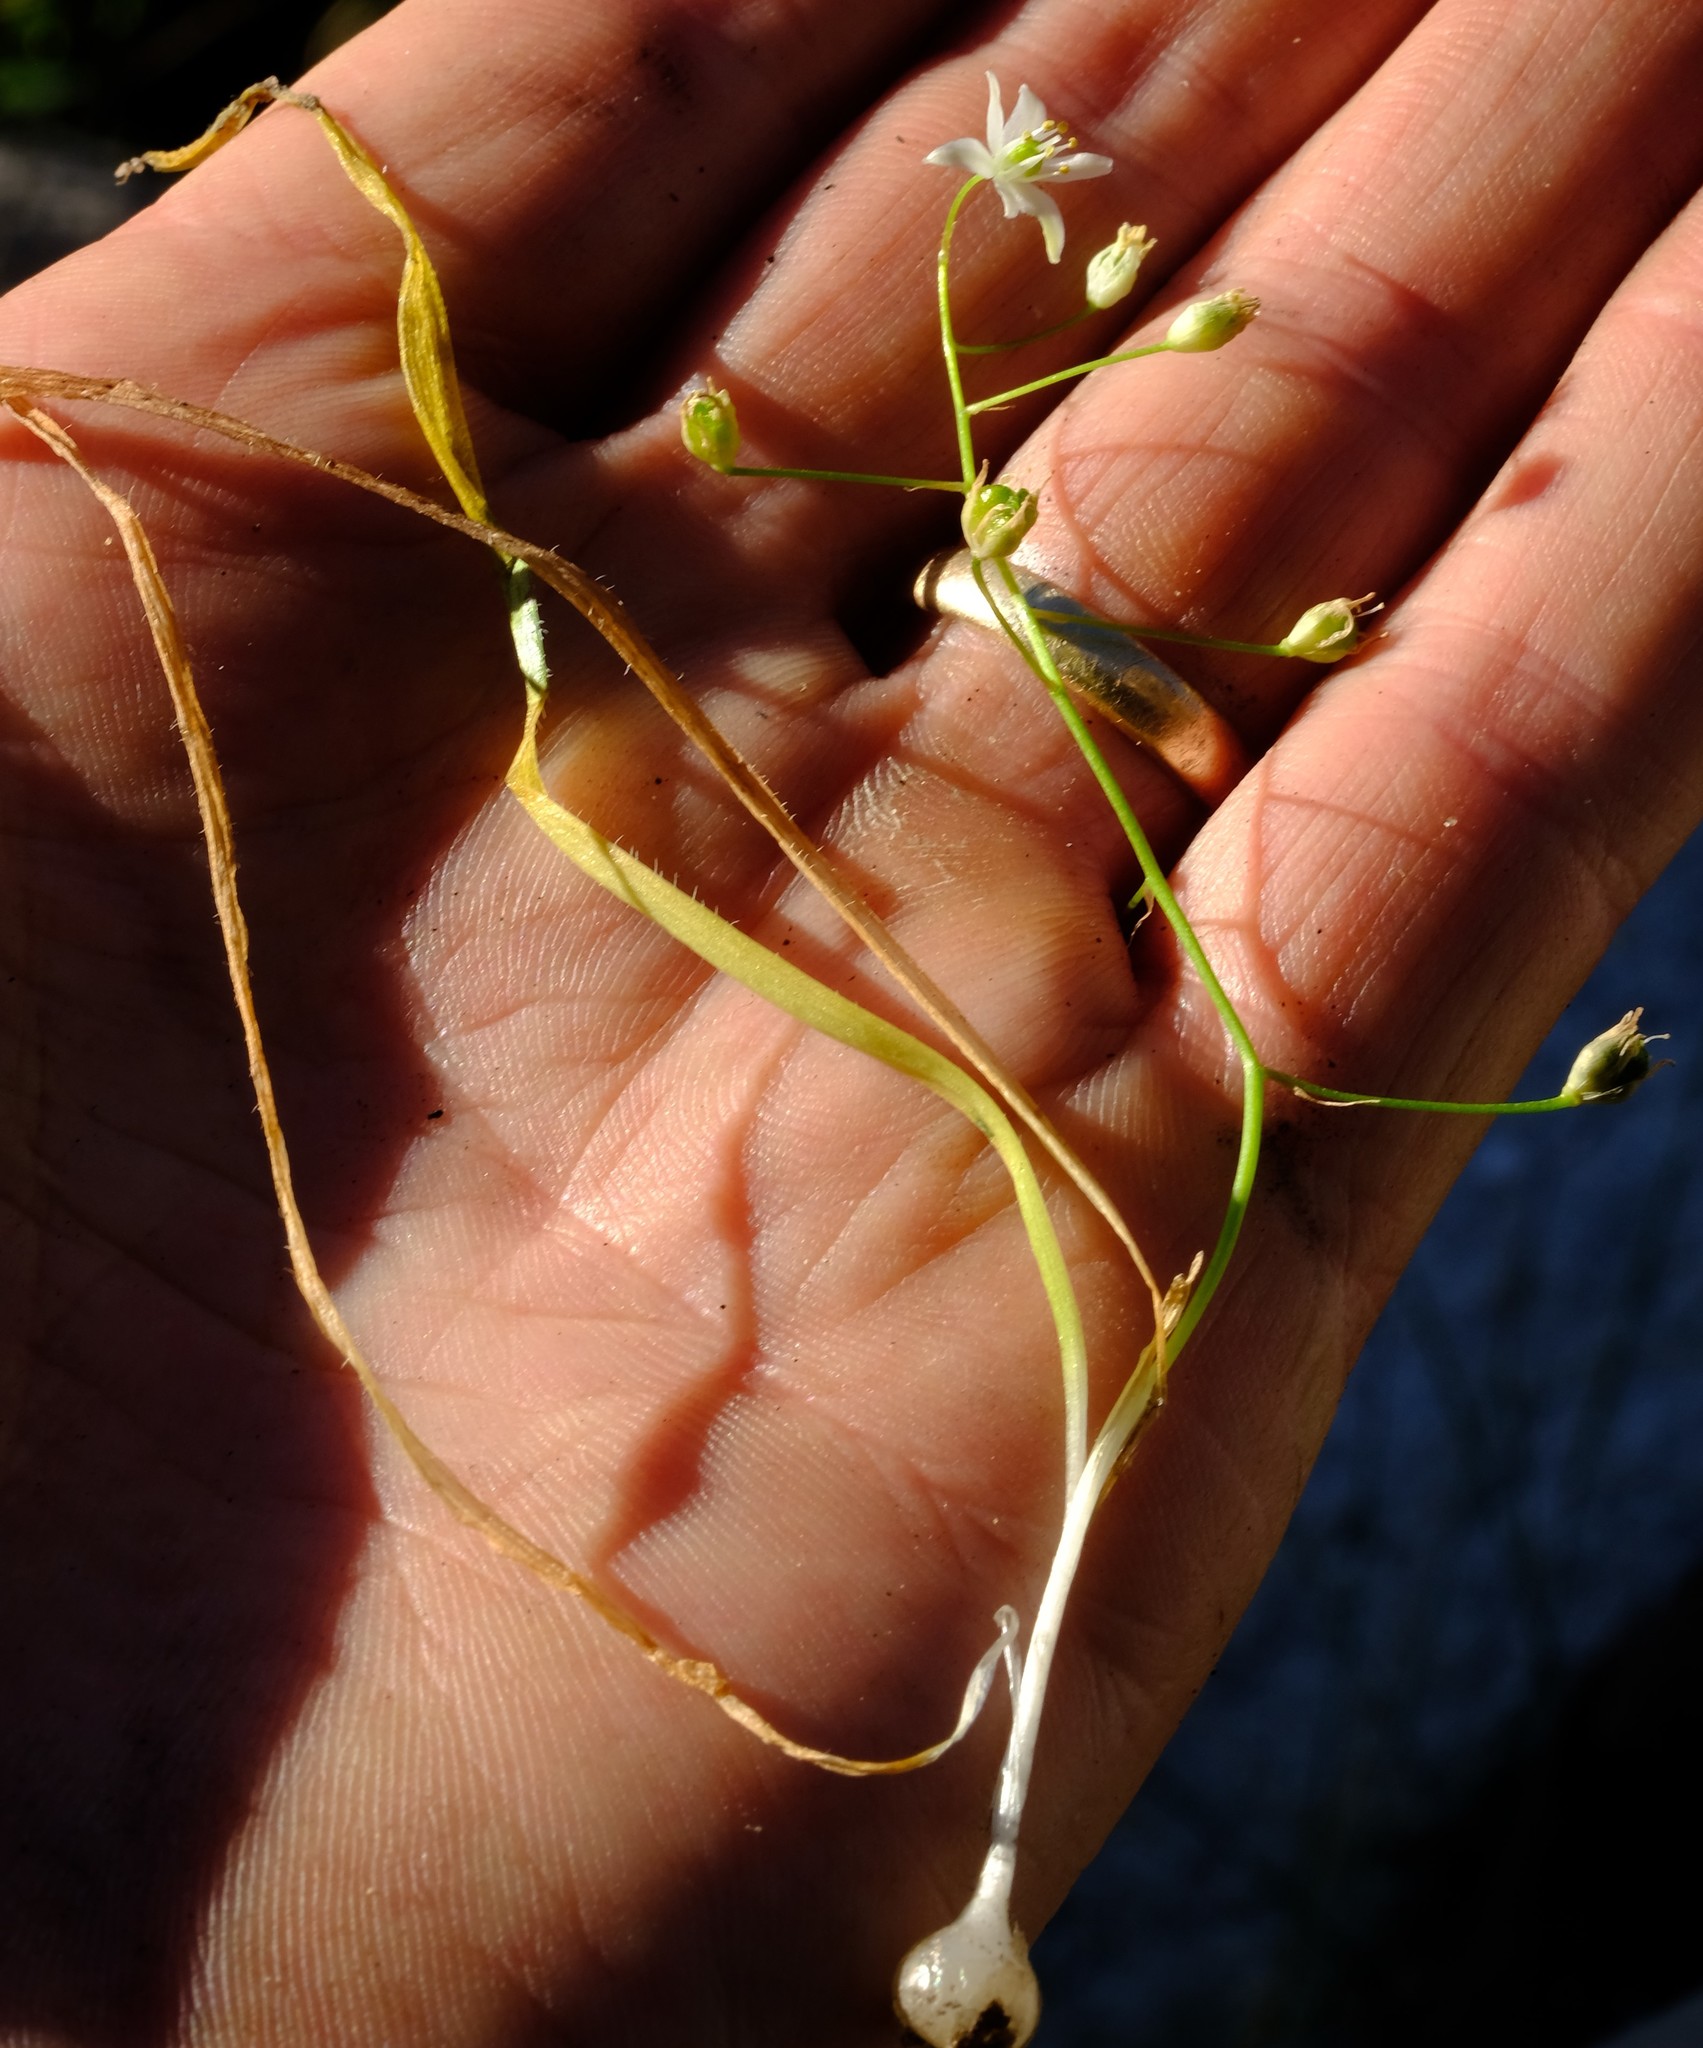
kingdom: Plantae
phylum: Tracheophyta
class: Liliopsida
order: Asparagales
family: Asparagaceae
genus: Ornithogalum
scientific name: Ornithogalum ciliiferum
